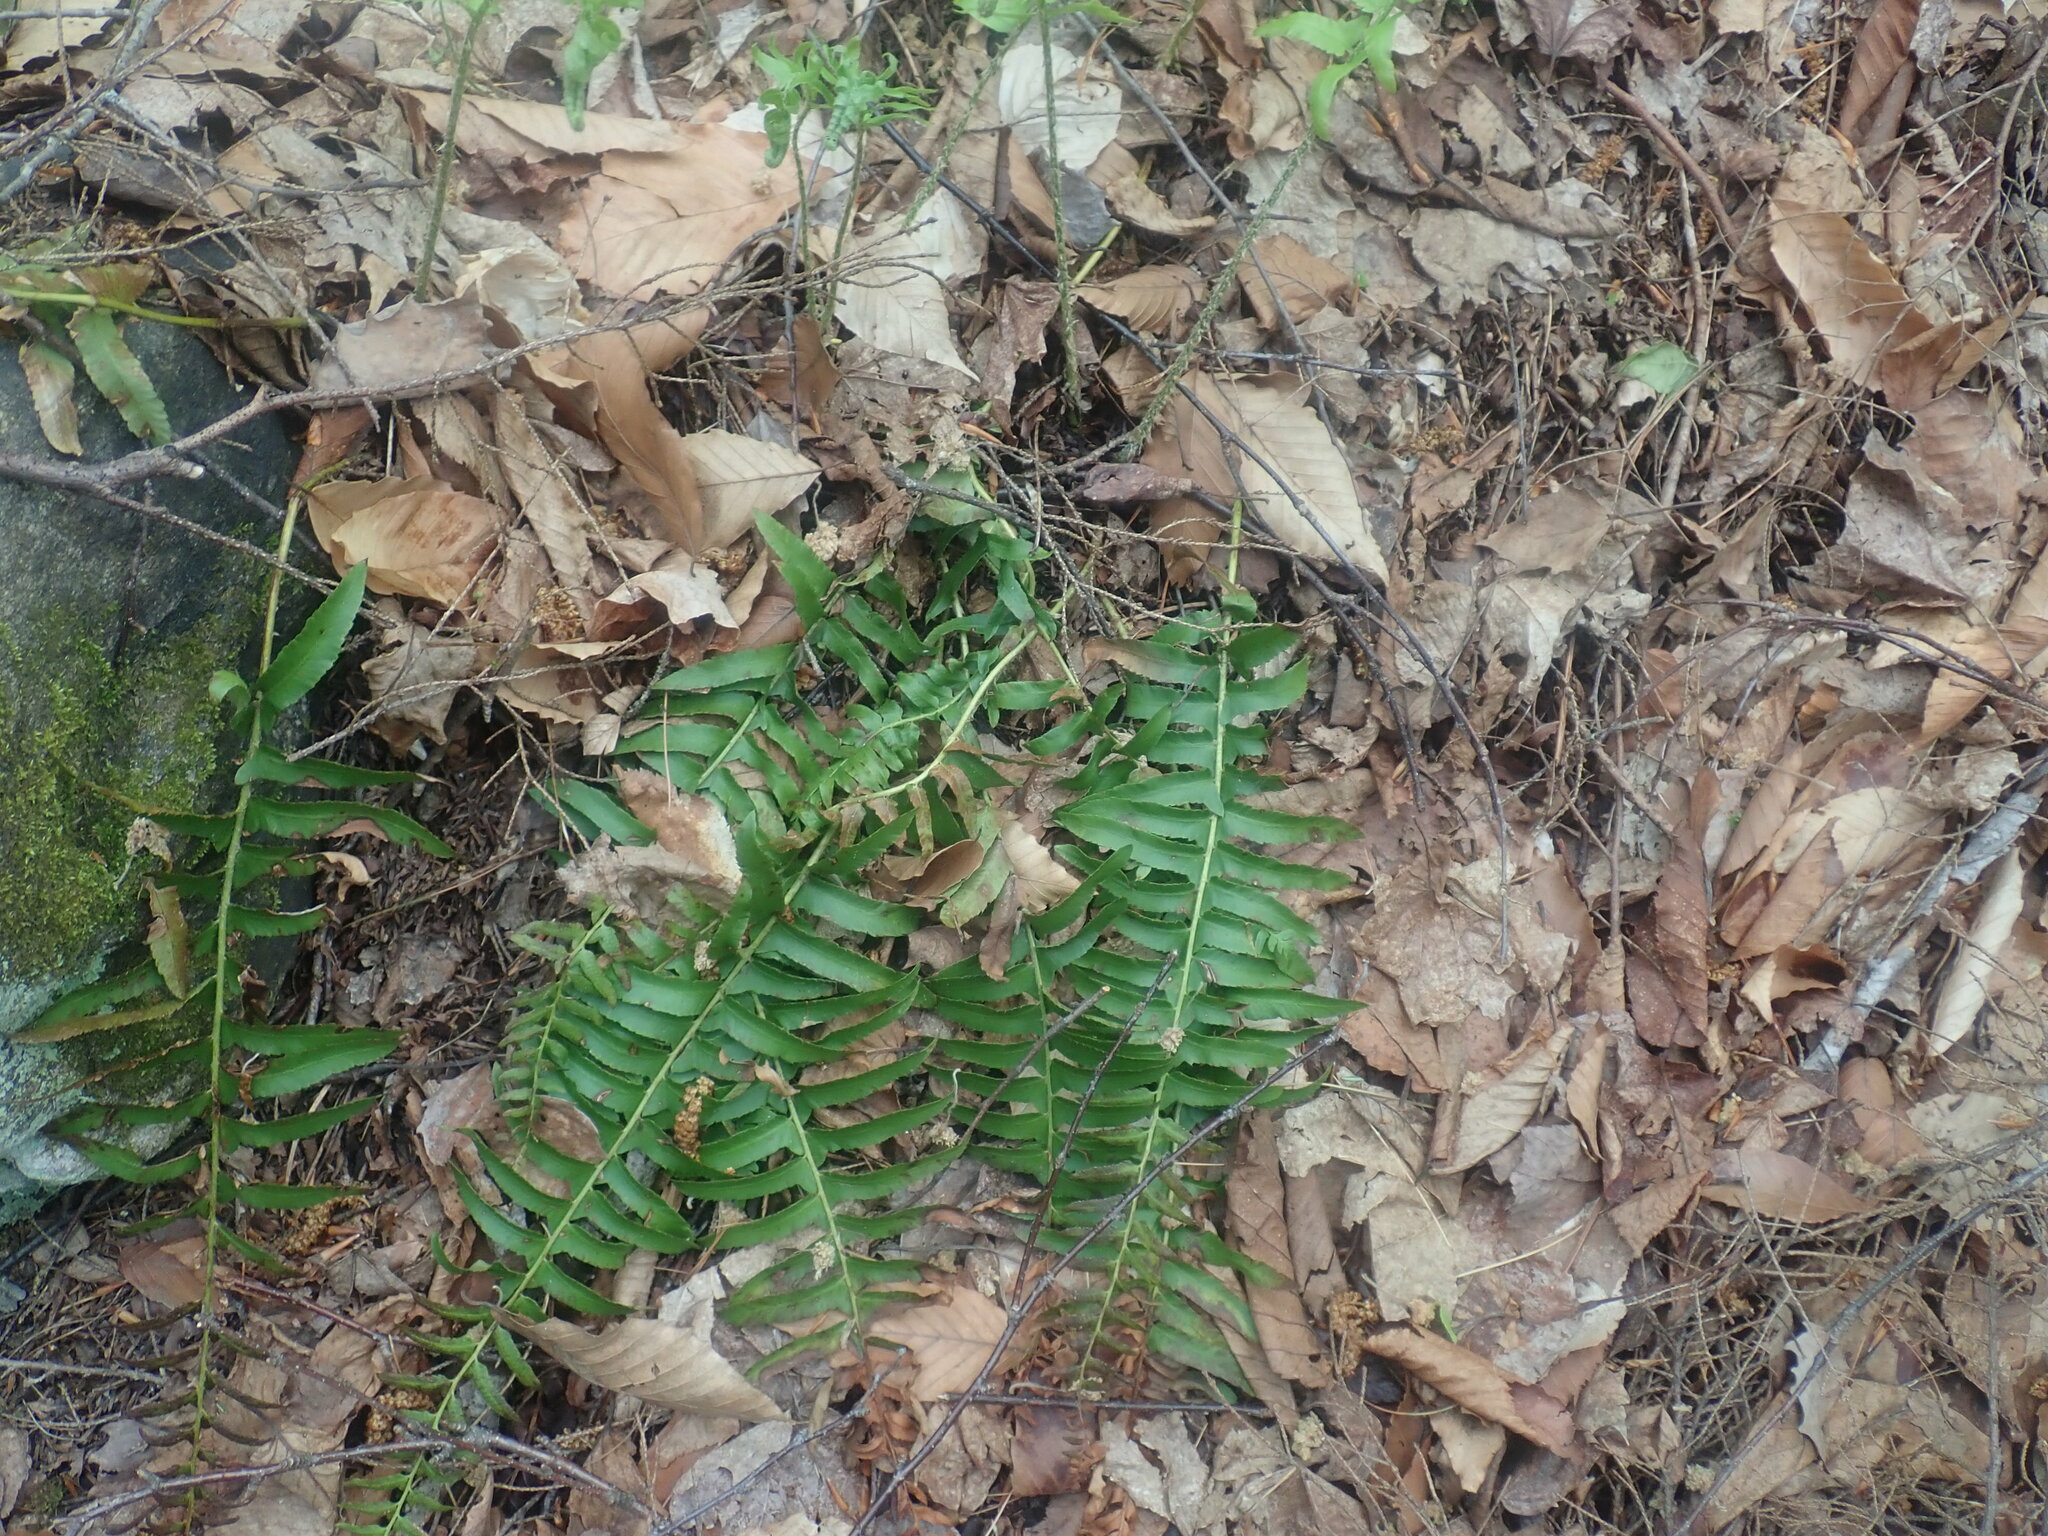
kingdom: Plantae
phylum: Tracheophyta
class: Polypodiopsida
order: Polypodiales
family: Dryopteridaceae
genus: Polystichum
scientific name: Polystichum acrostichoides
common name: Christmas fern
